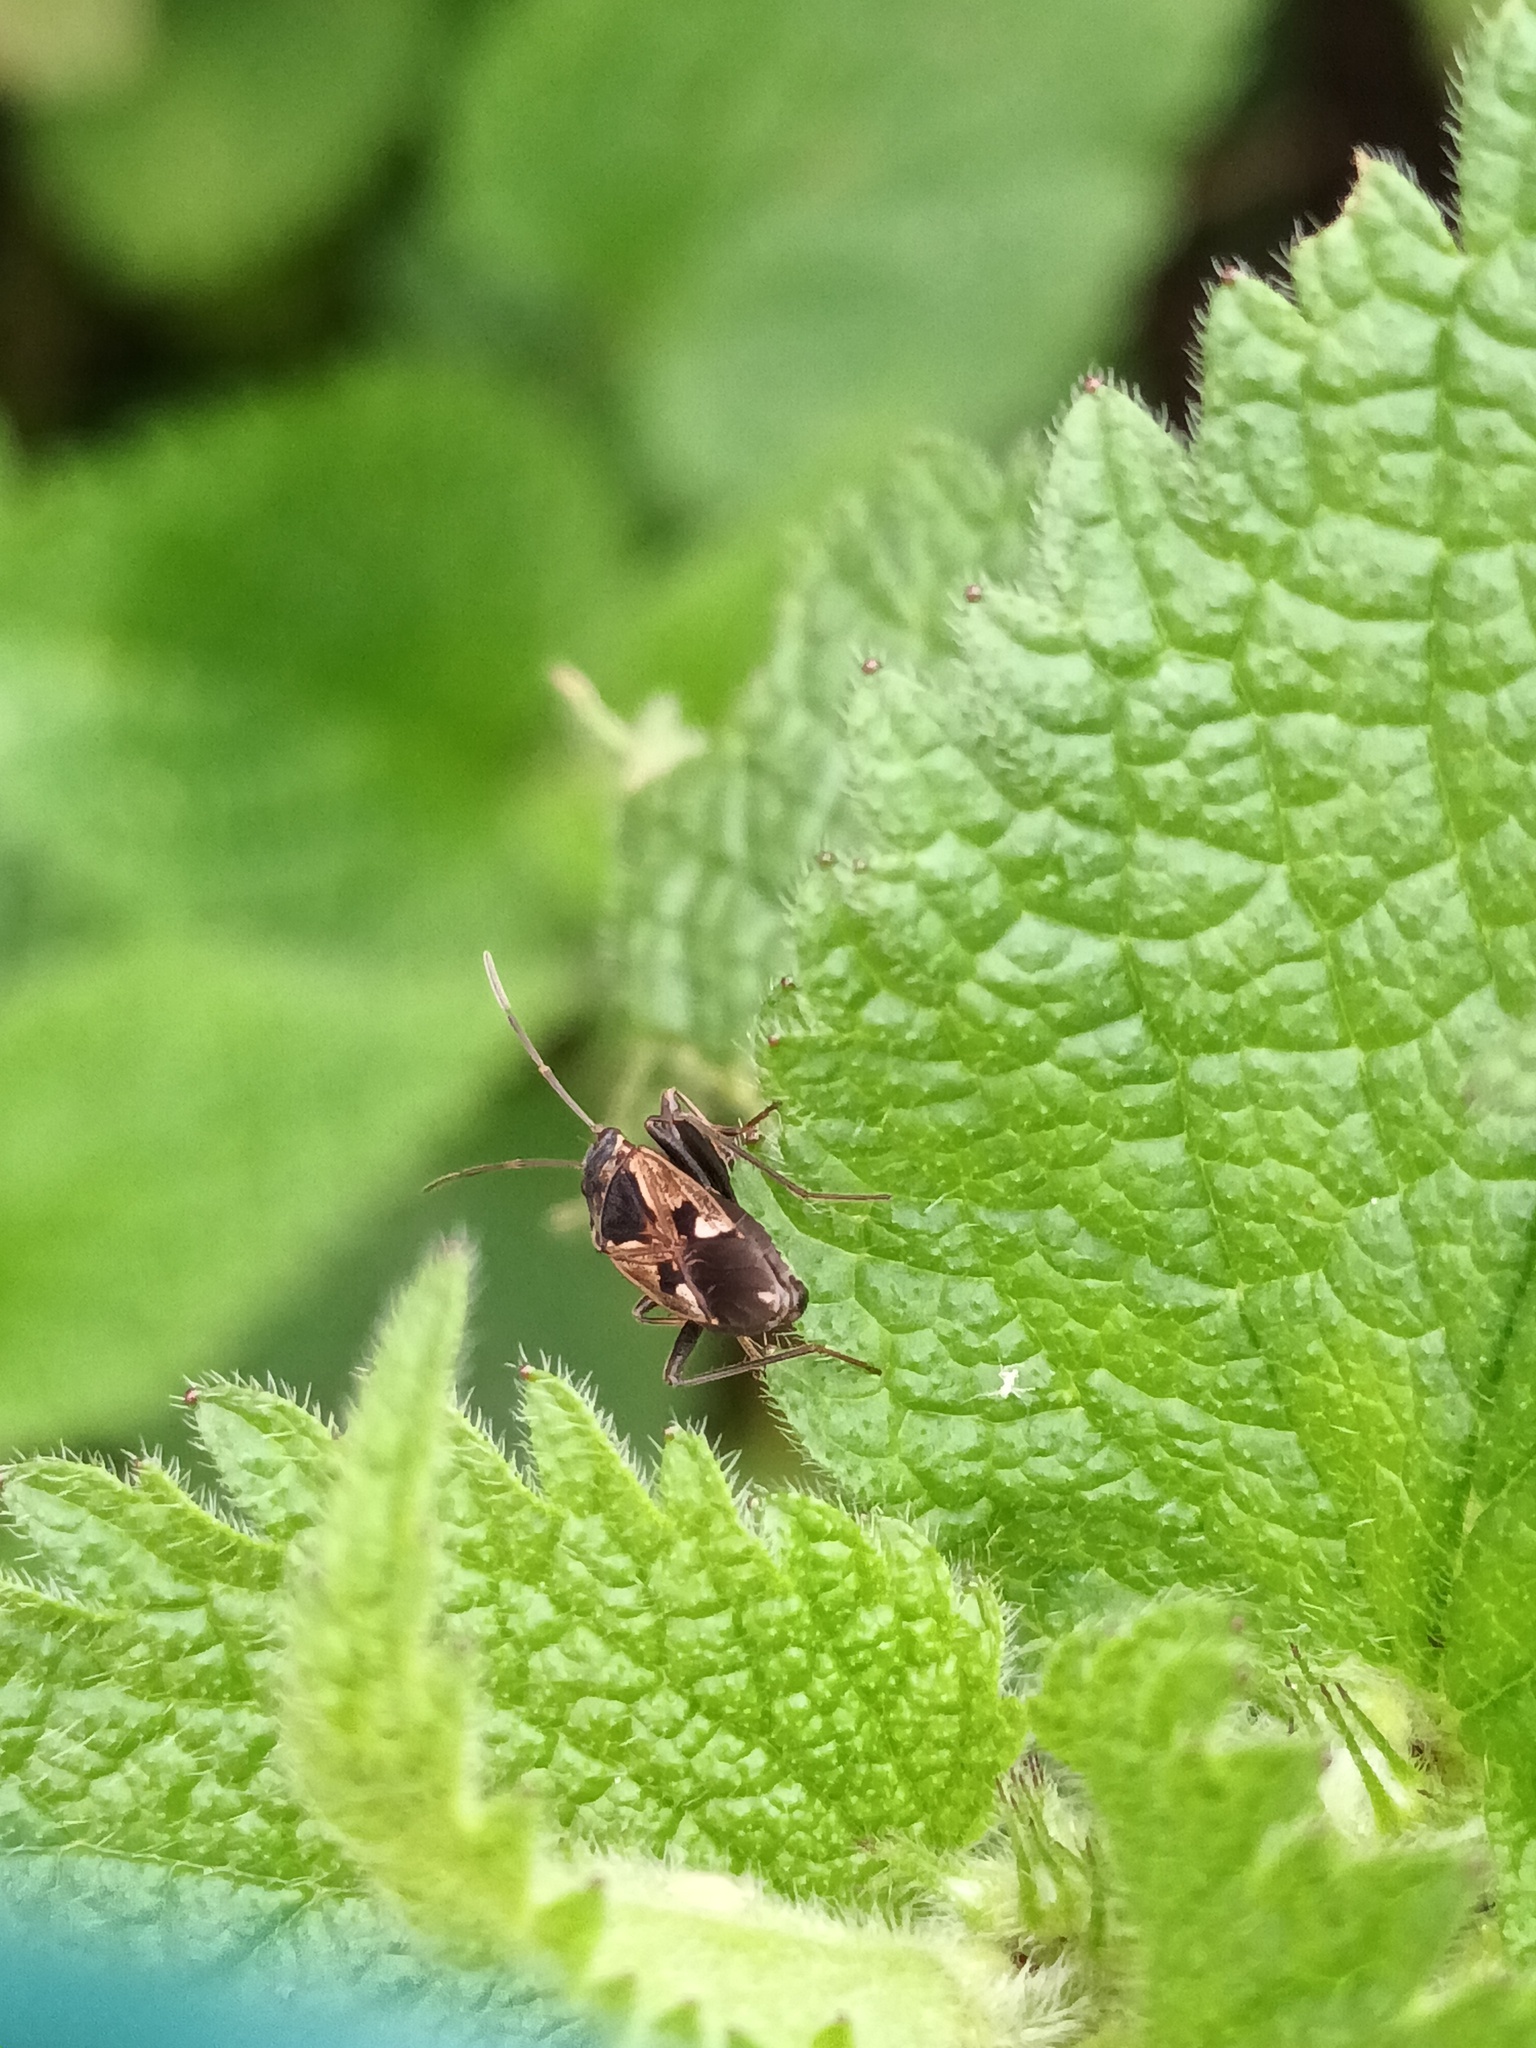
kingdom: Animalia
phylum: Arthropoda
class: Insecta
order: Hemiptera
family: Rhyparochromidae
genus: Rhyparochromus
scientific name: Rhyparochromus vulgaris
